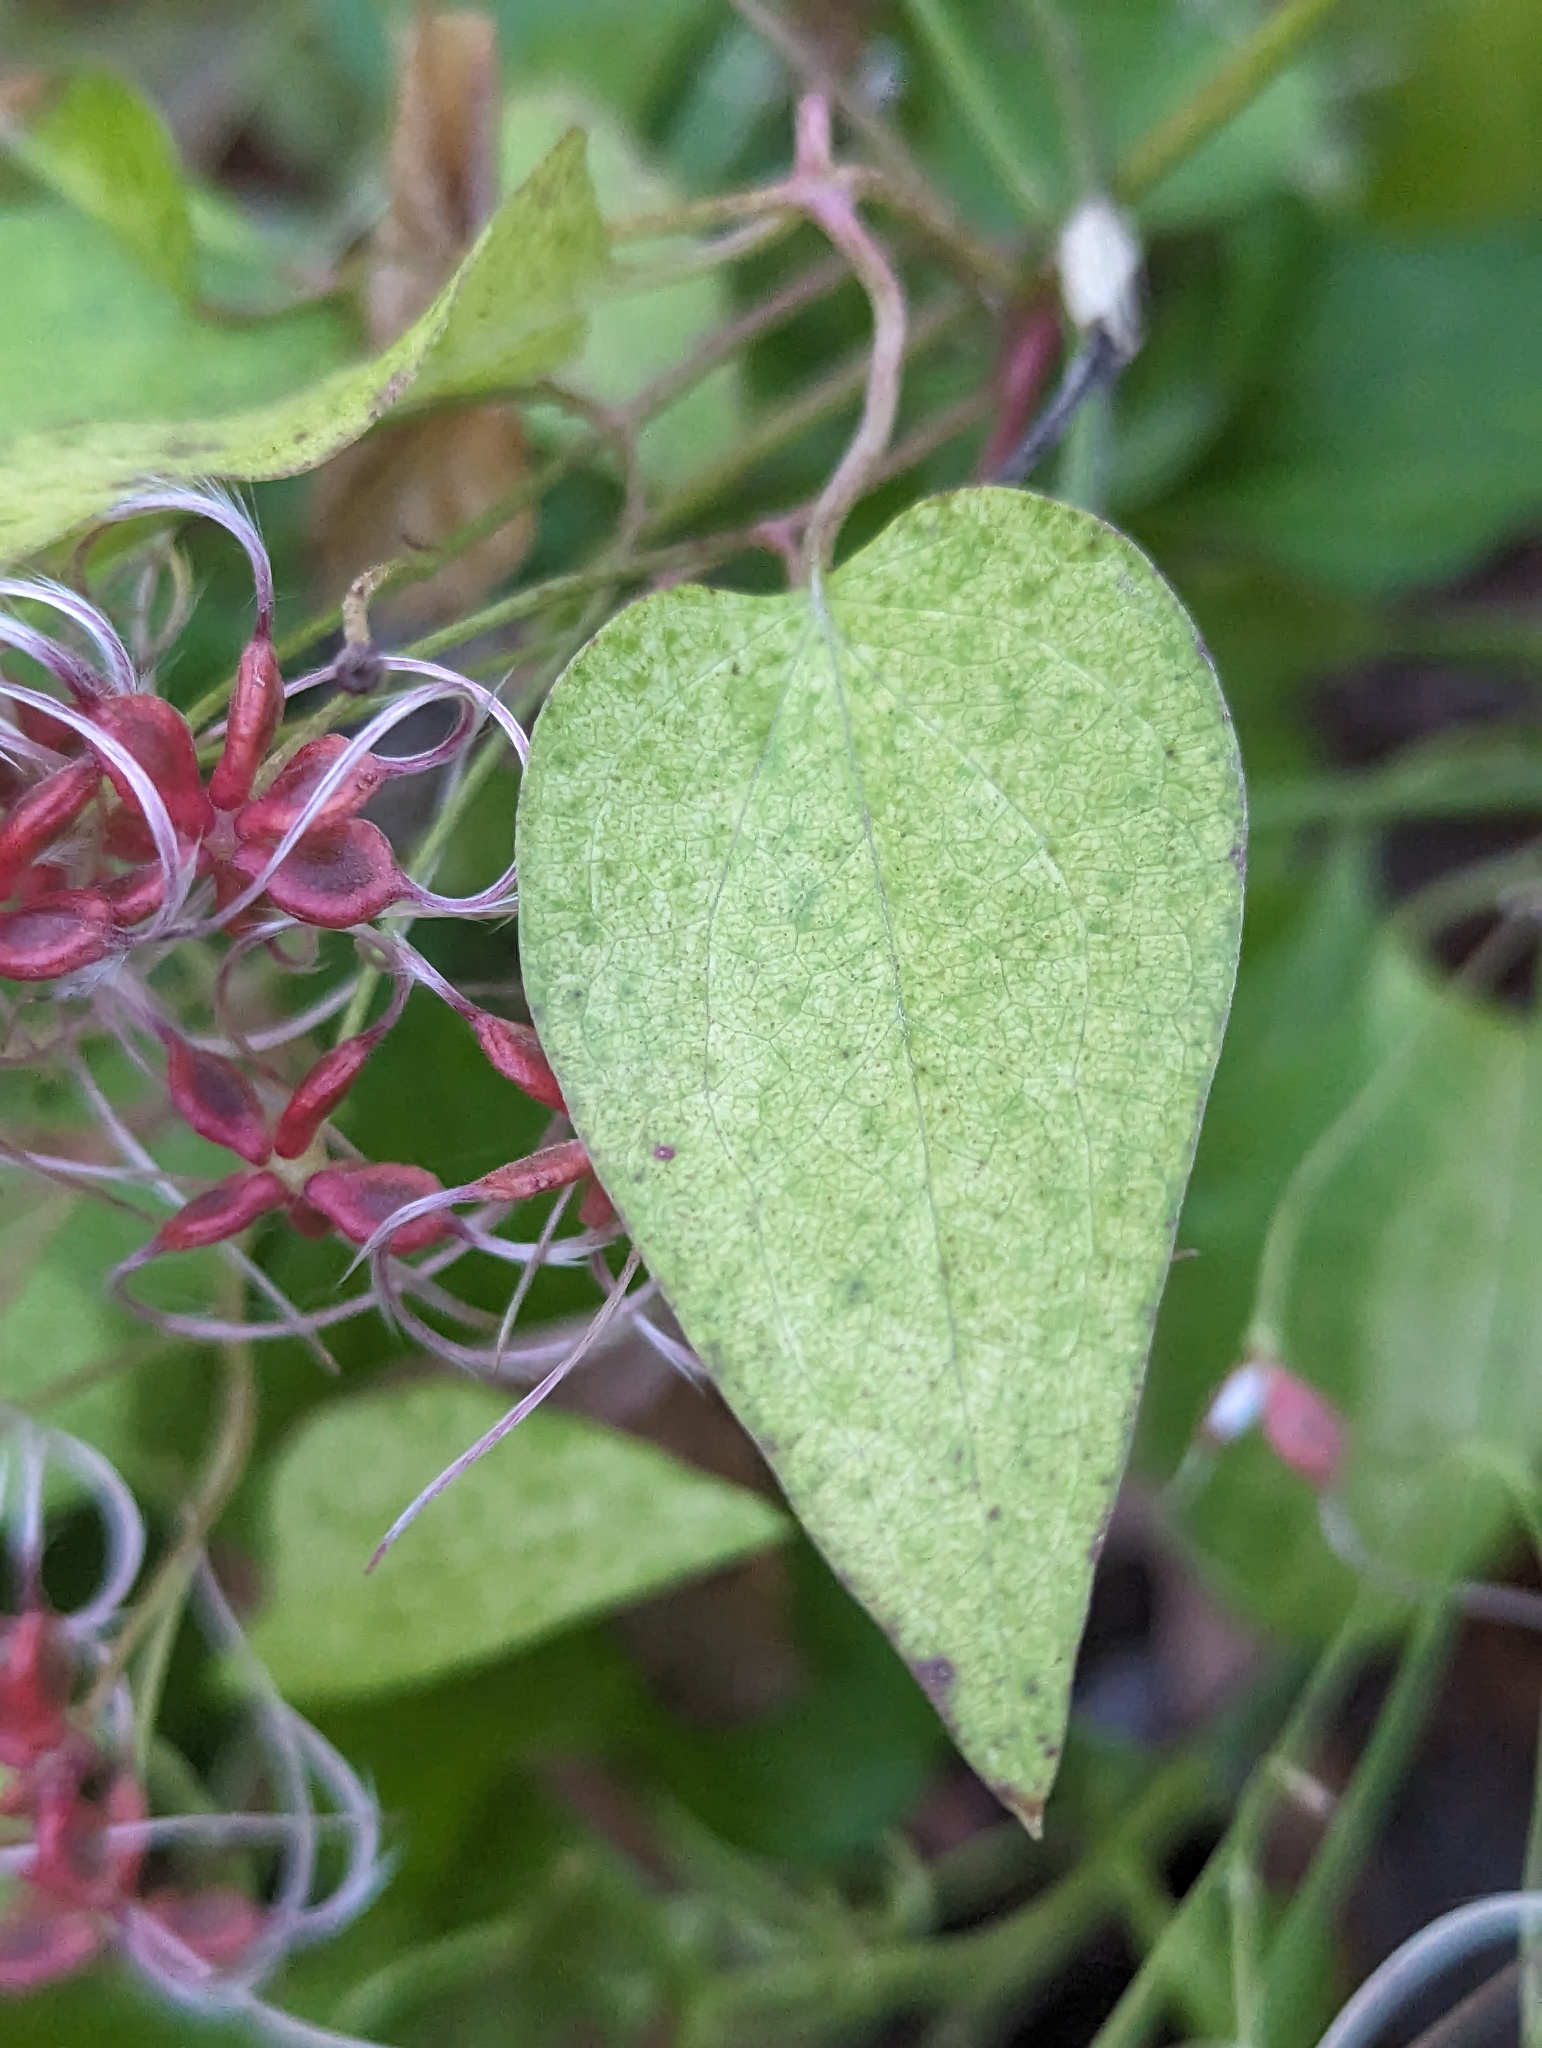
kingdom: Plantae
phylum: Tracheophyta
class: Magnoliopsida
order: Ranunculales
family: Ranunculaceae
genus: Clematis
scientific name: Clematis terniflora
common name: Sweet autumn clematis
